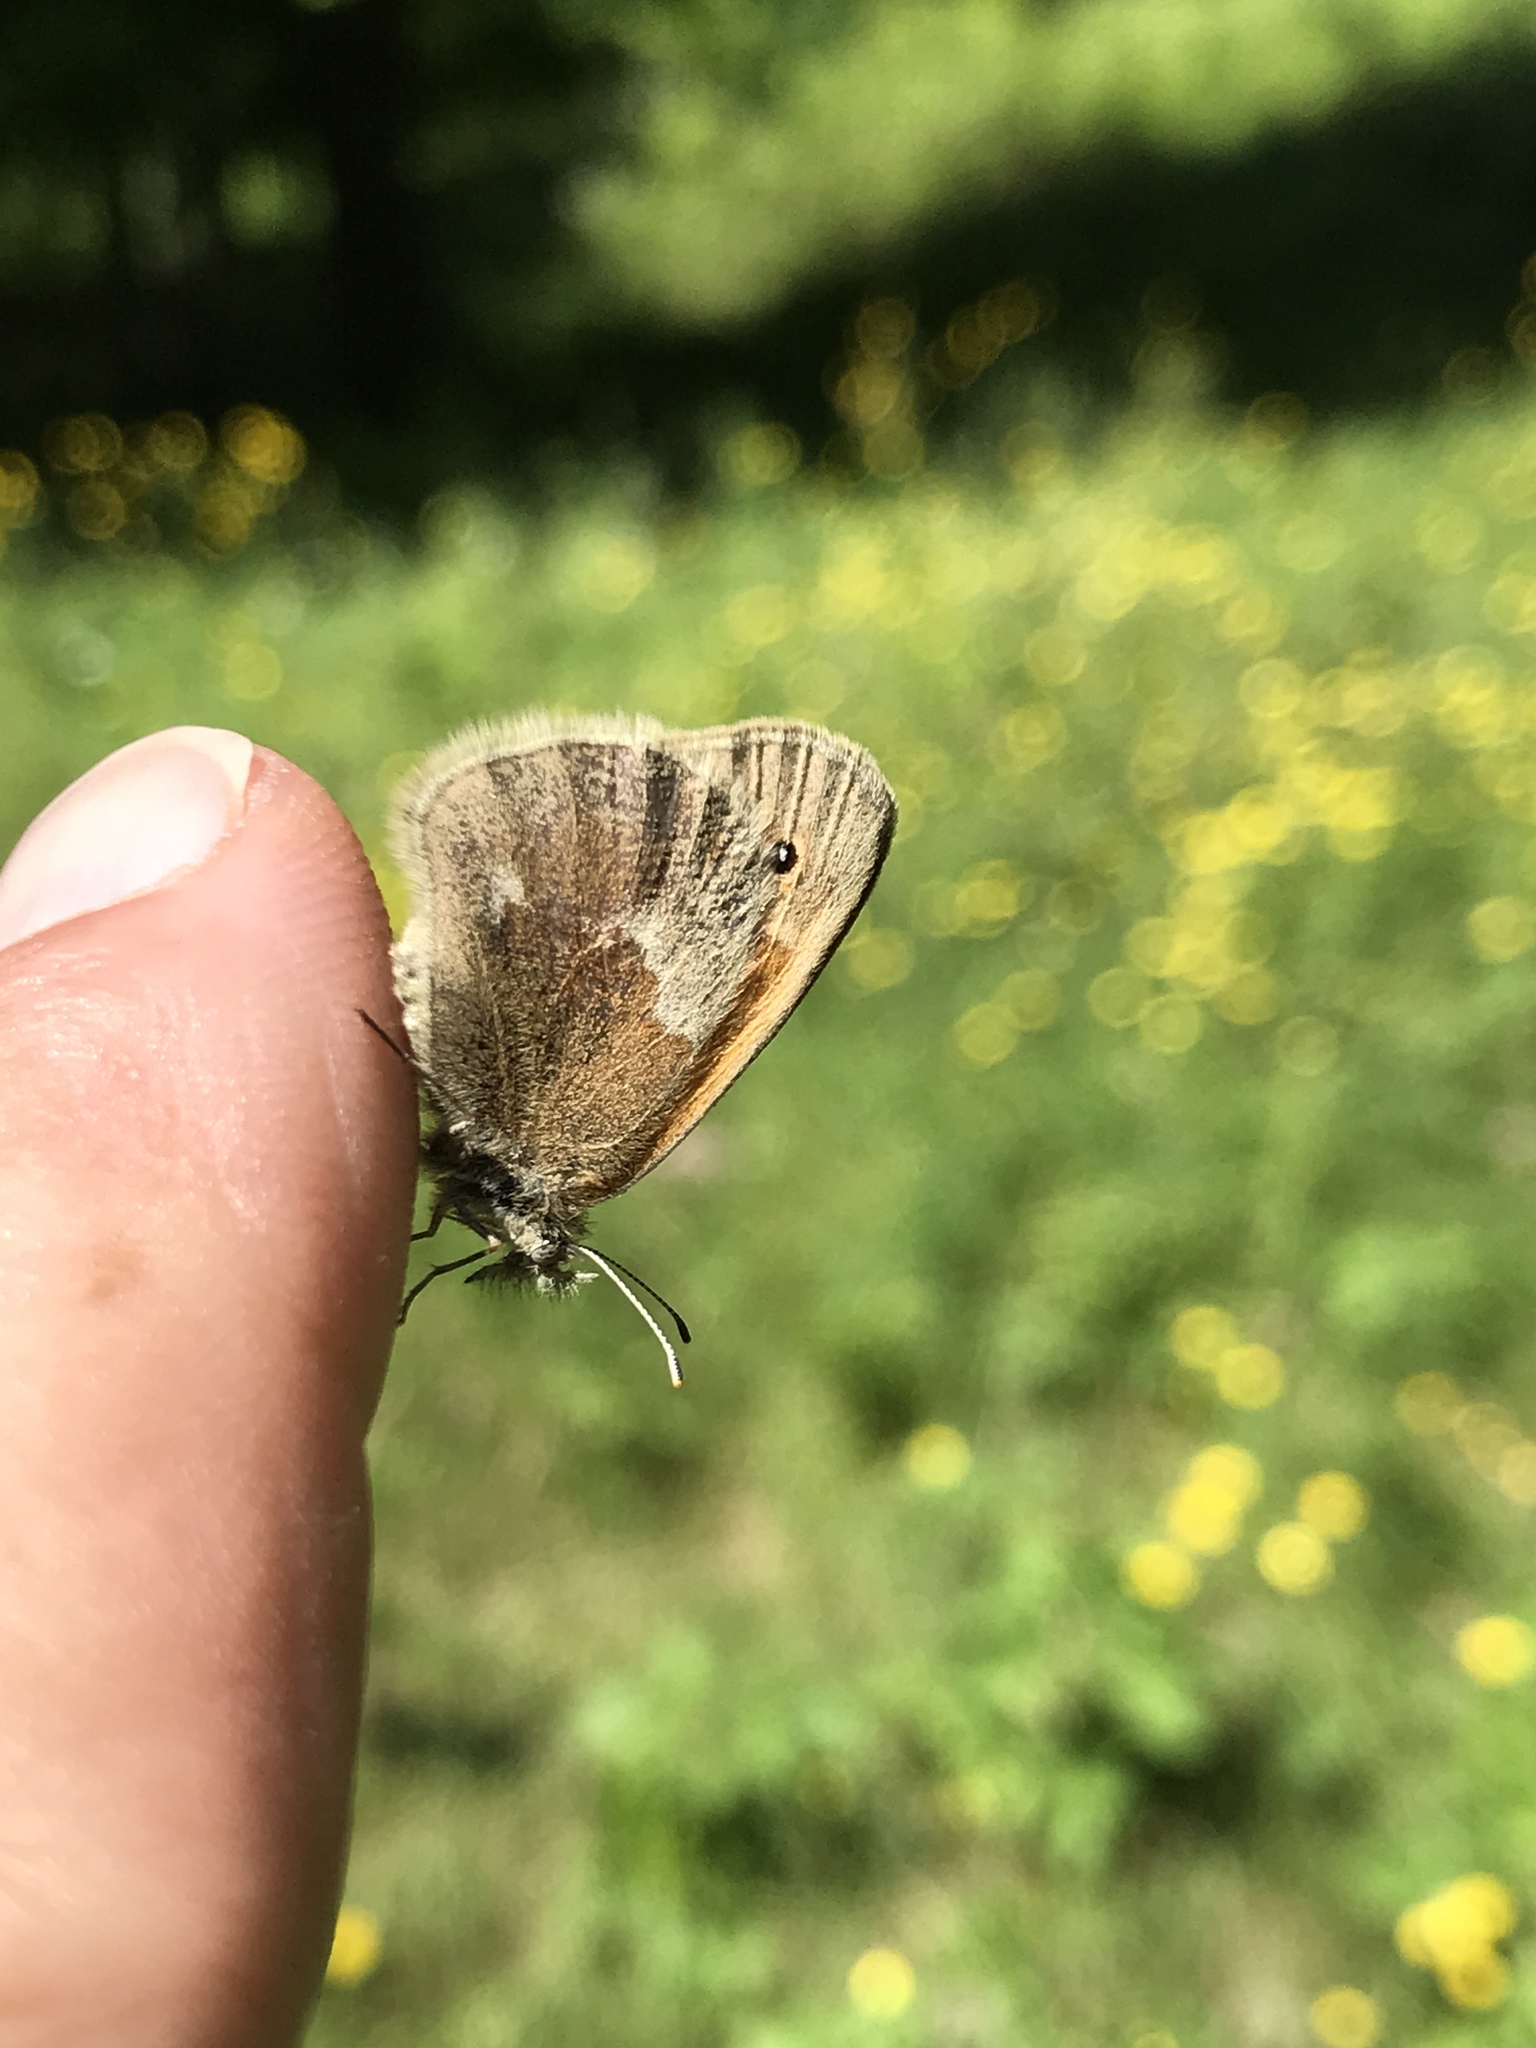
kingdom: Animalia
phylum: Arthropoda
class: Insecta
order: Lepidoptera
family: Nymphalidae
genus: Coenonympha
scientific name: Coenonympha california
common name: Common ringlet
